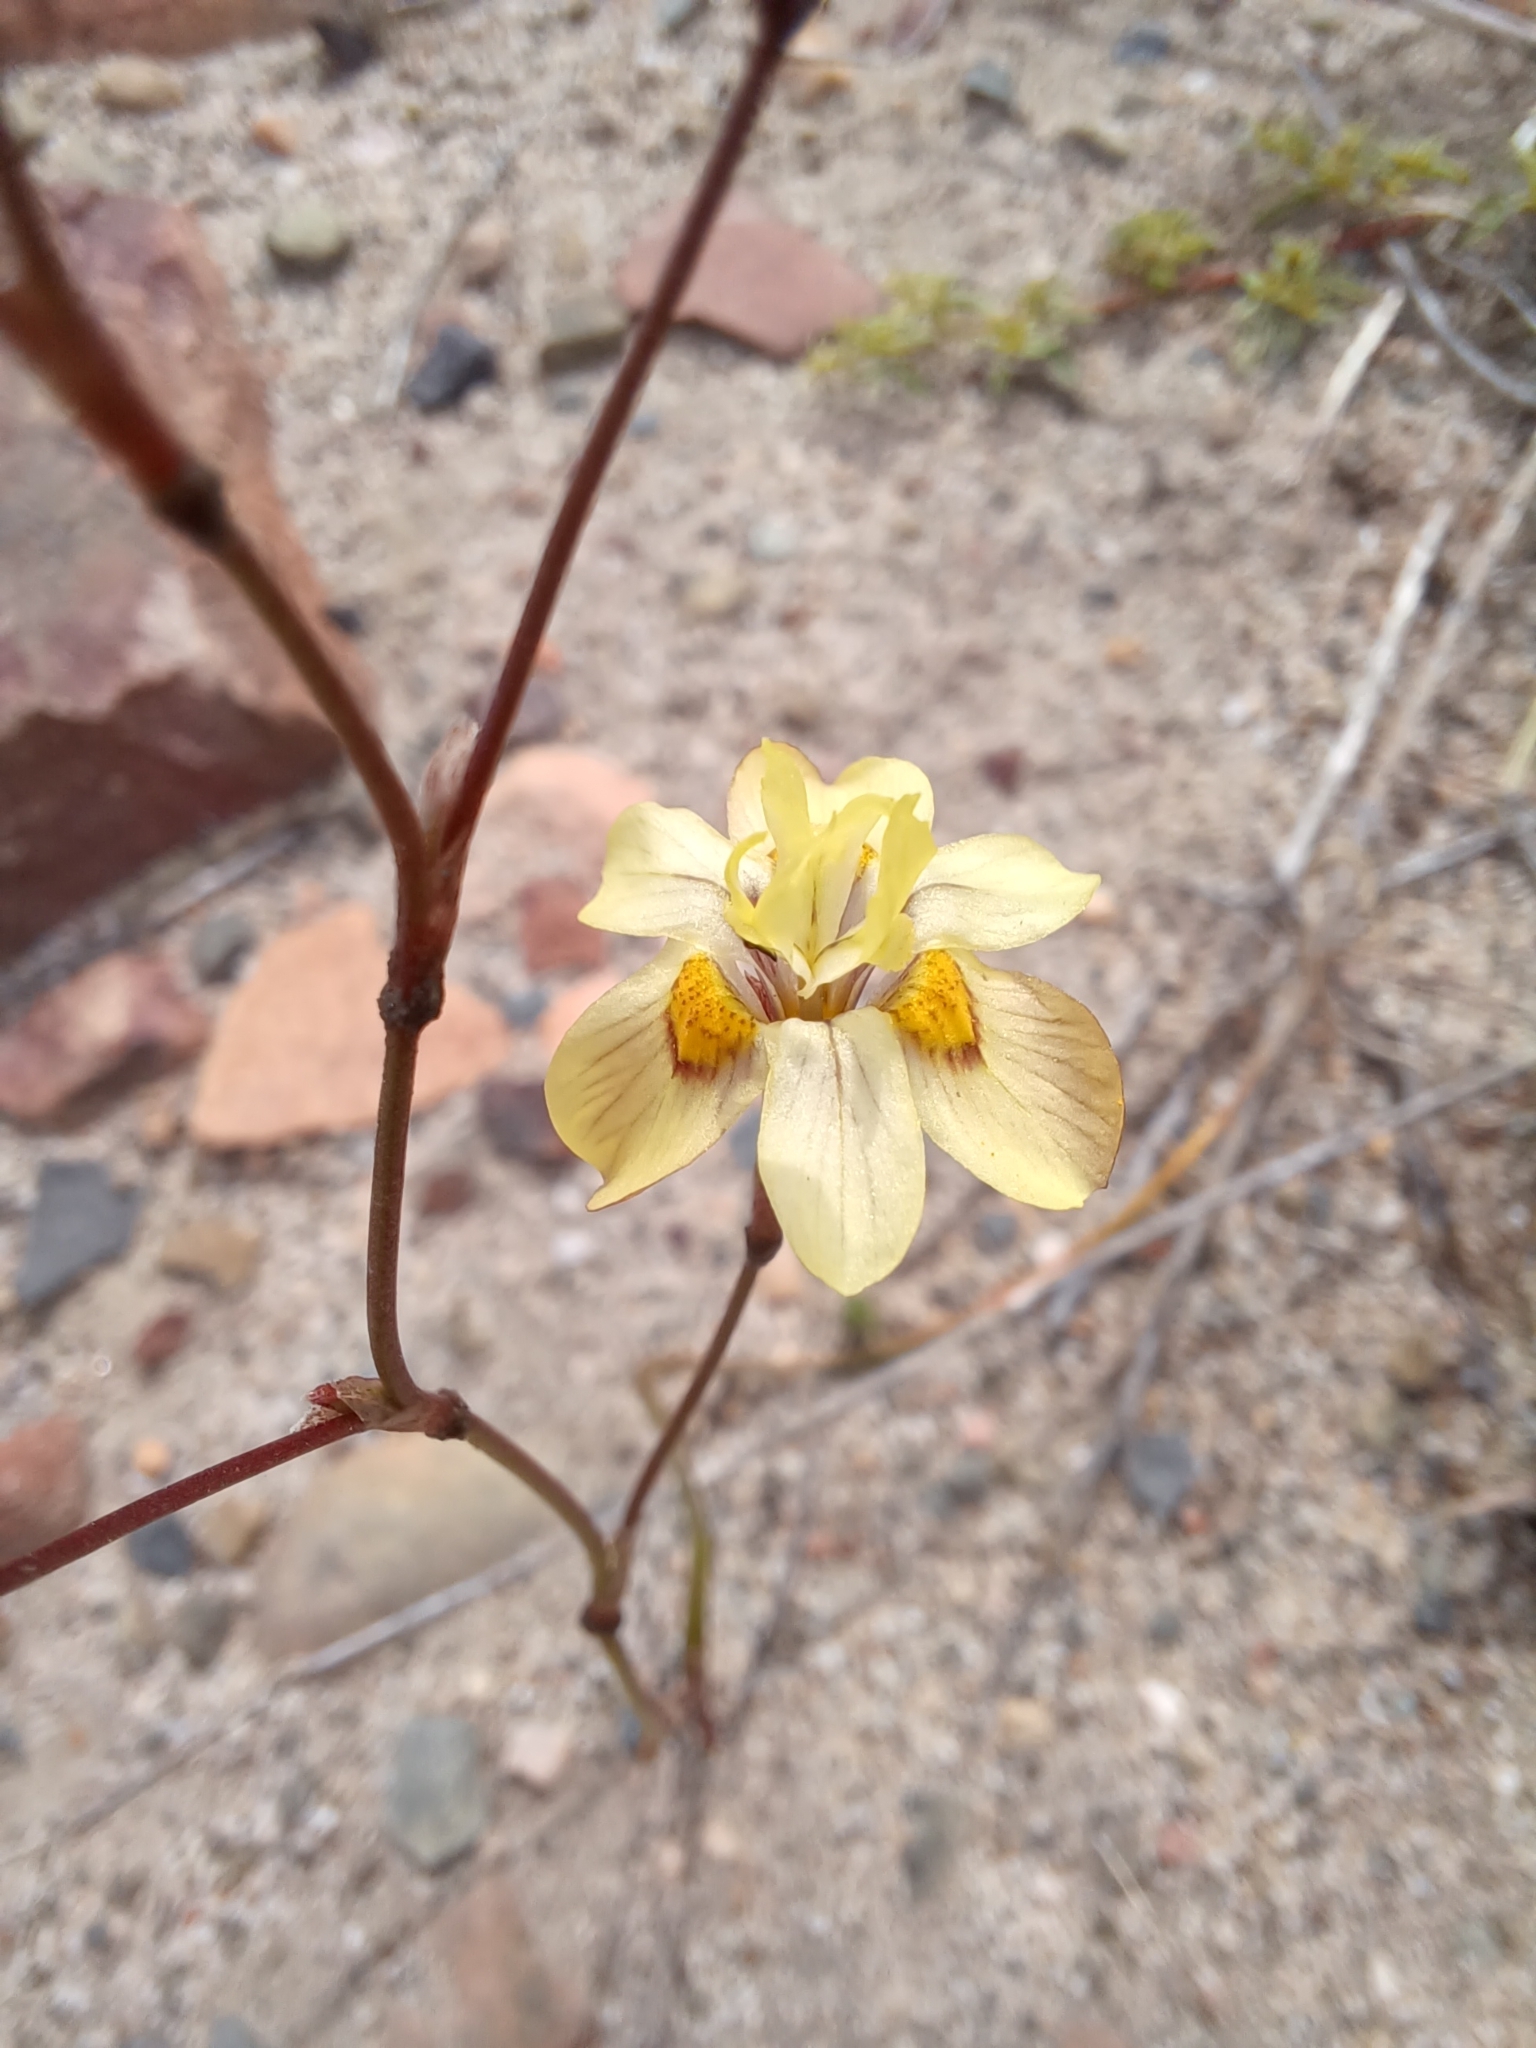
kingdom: Plantae
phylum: Tracheophyta
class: Liliopsida
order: Asparagales
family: Iridaceae
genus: Moraea
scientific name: Moraea gawleri
